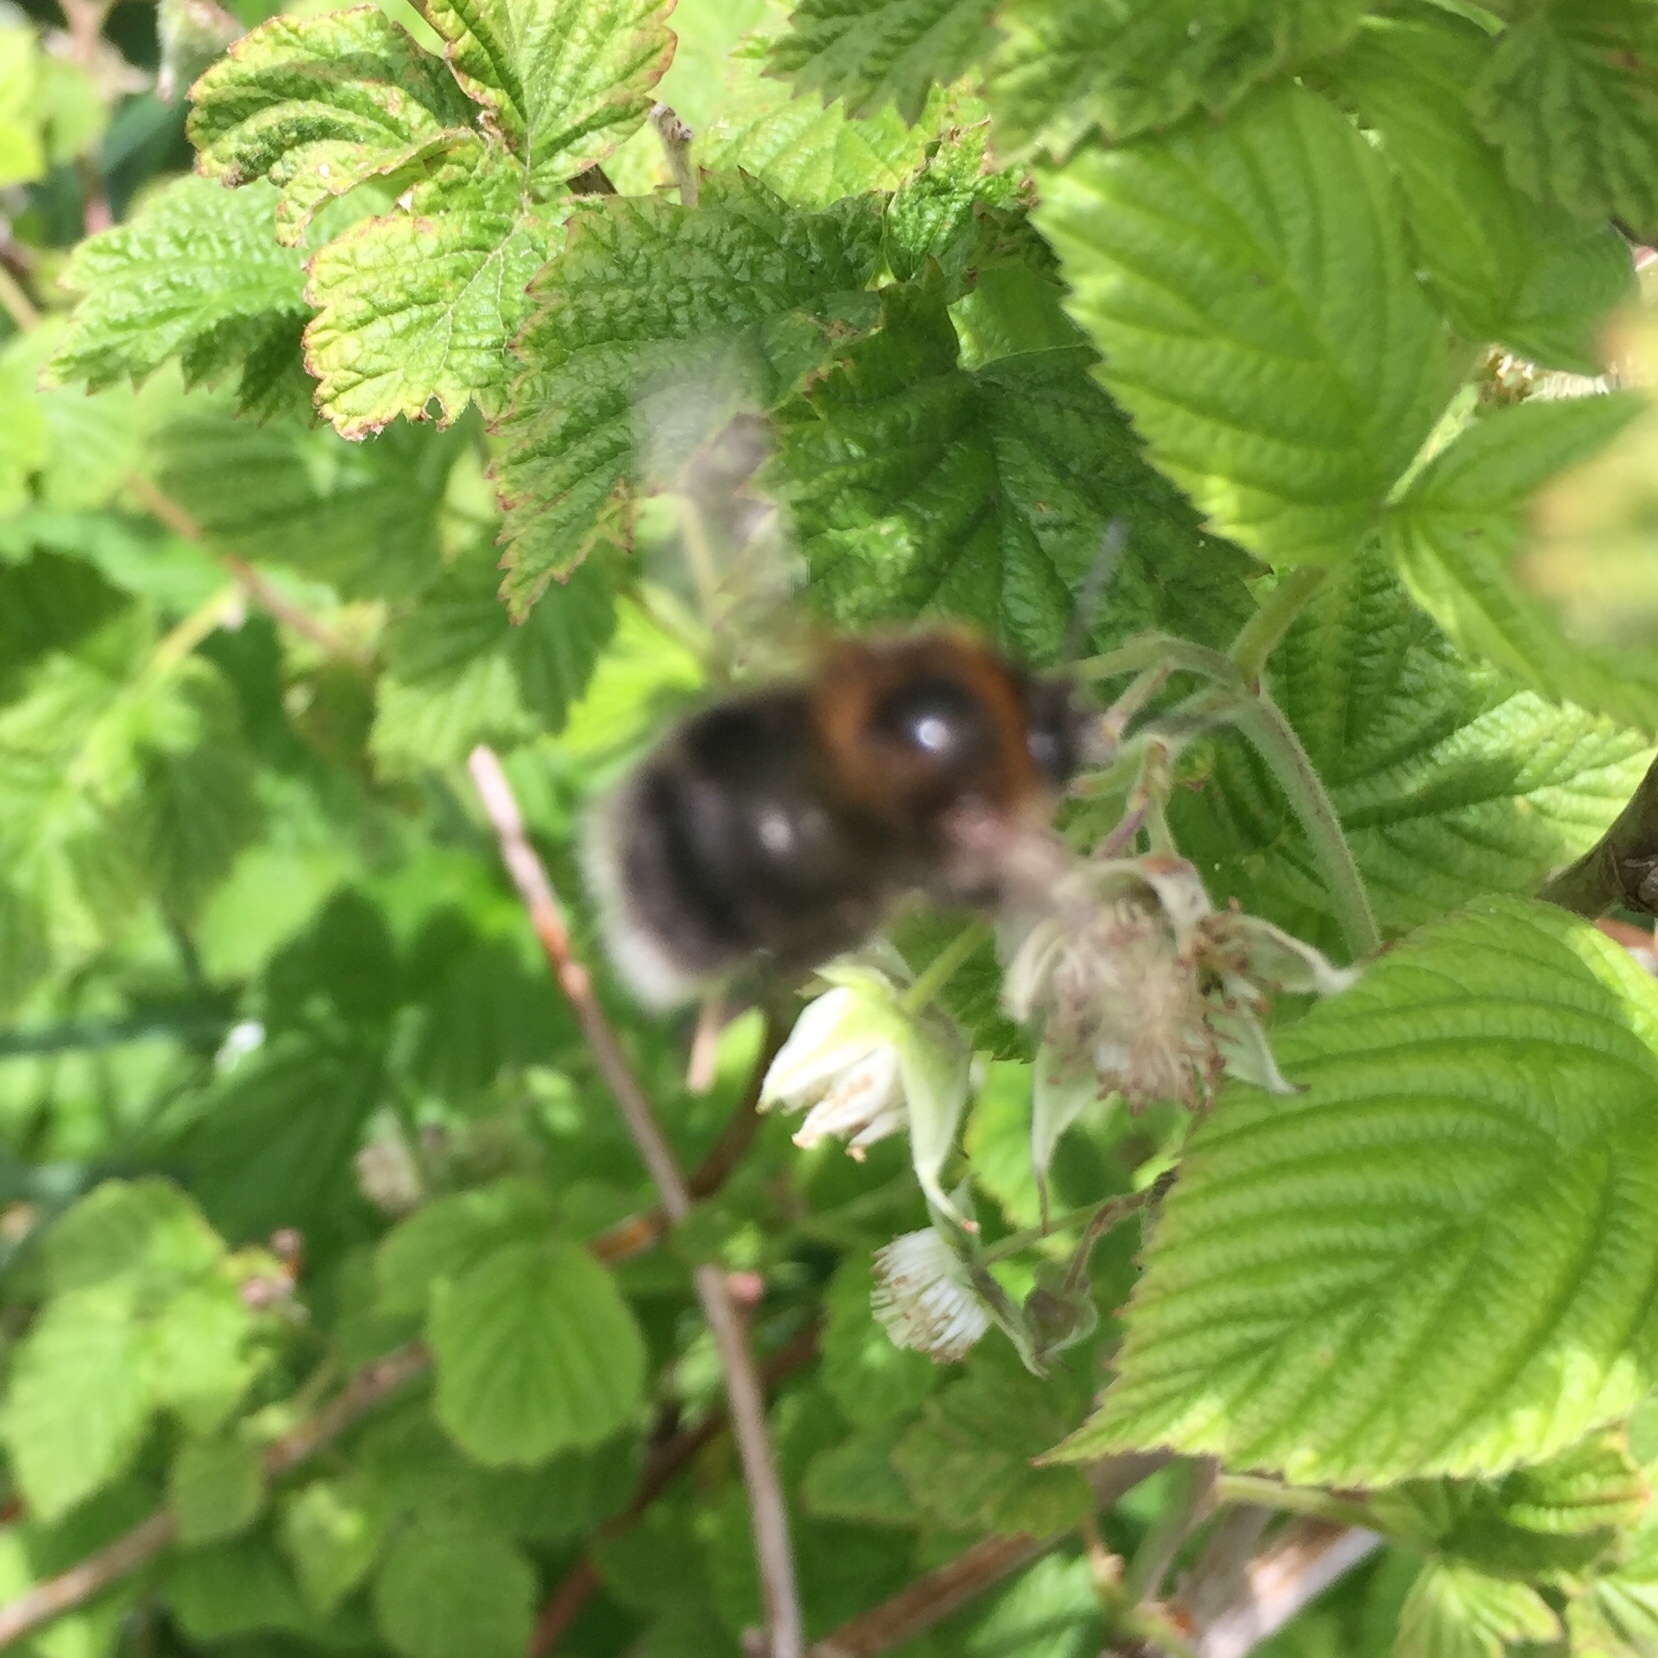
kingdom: Animalia
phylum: Arthropoda
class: Insecta
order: Hymenoptera
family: Apidae
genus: Bombus
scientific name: Bombus hypnorum
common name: New garden bumblebee
